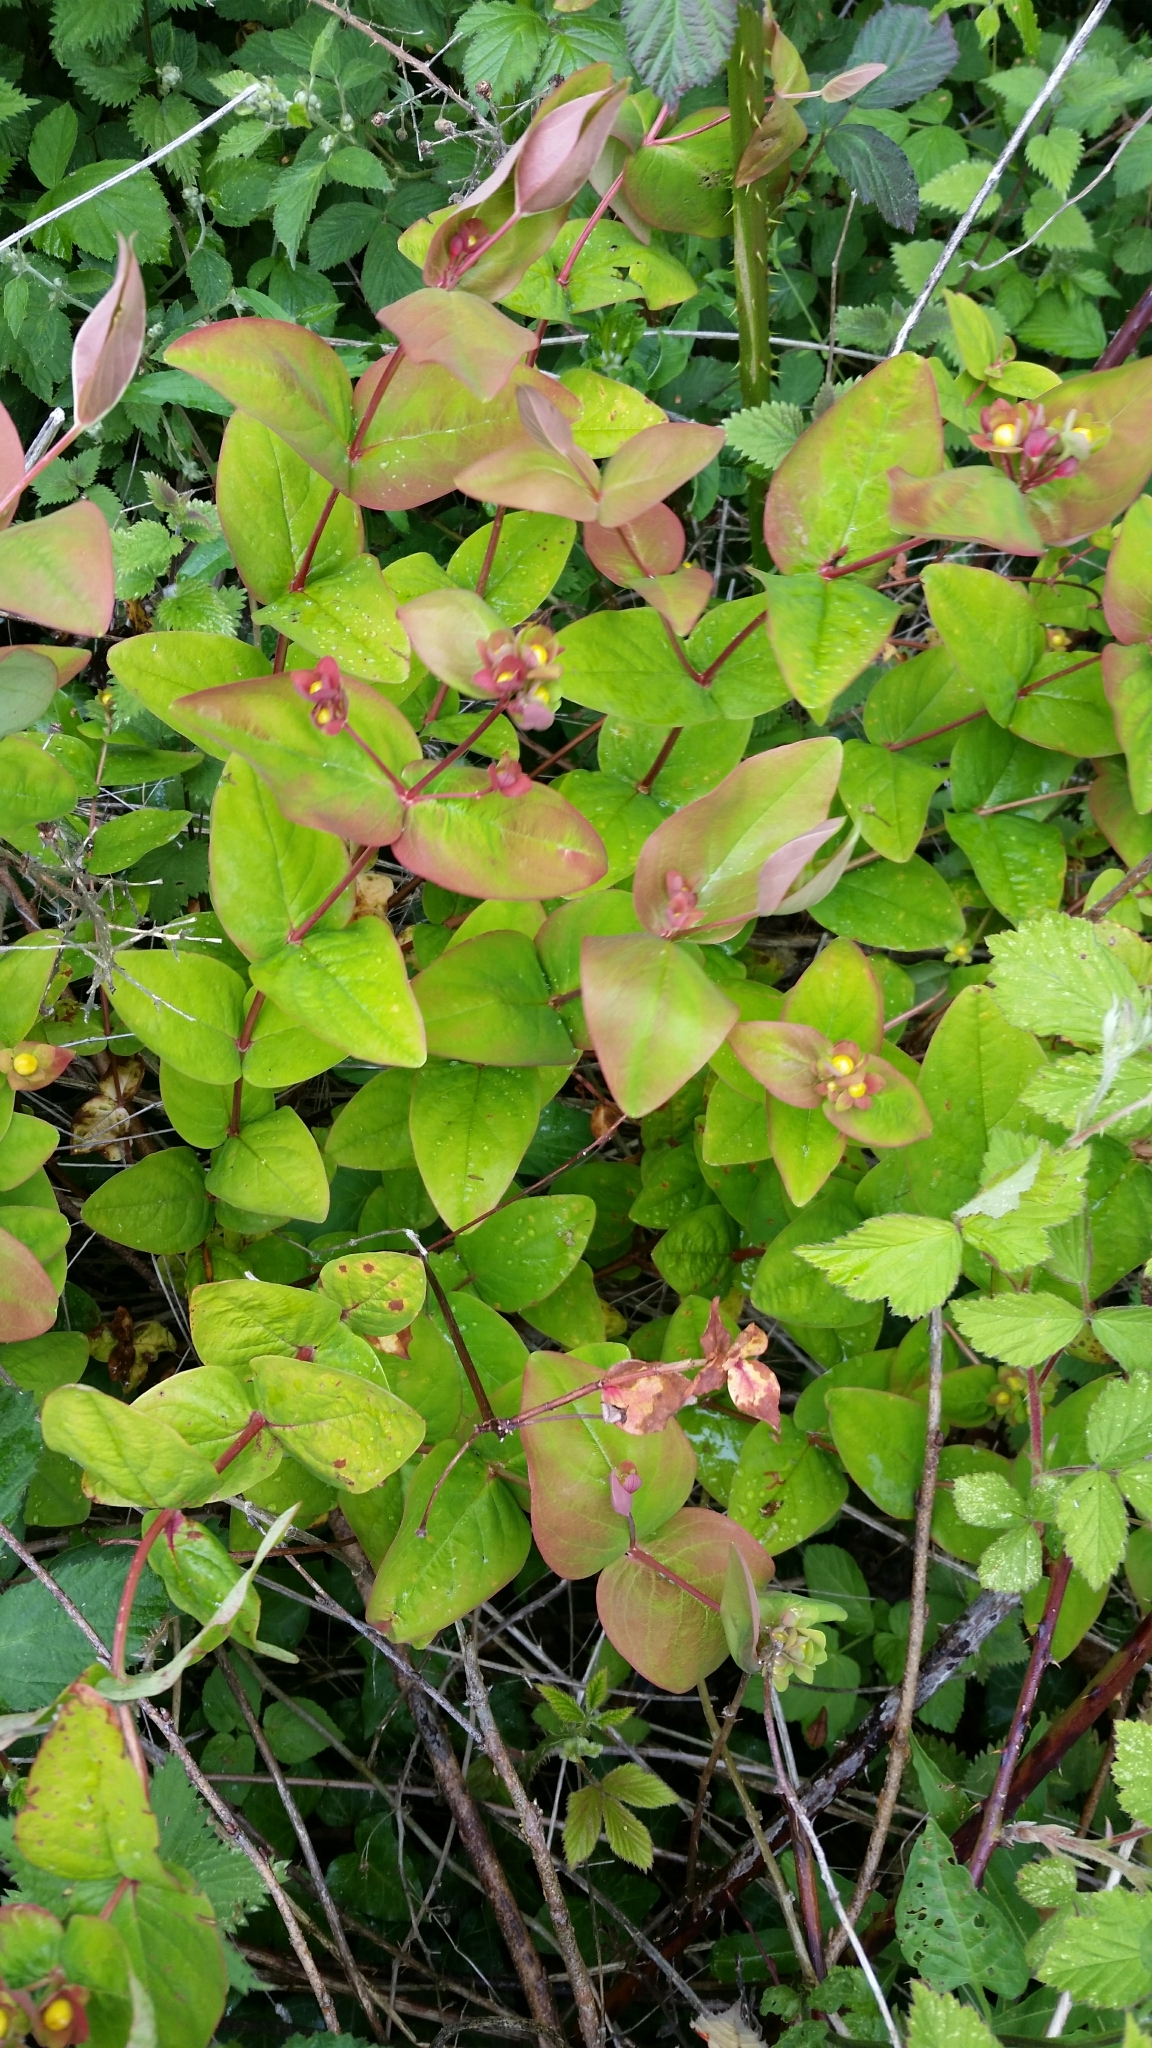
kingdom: Plantae
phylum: Tracheophyta
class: Magnoliopsida
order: Malpighiales
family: Hypericaceae
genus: Hypericum
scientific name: Hypericum androsaemum
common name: Sweet-amber
